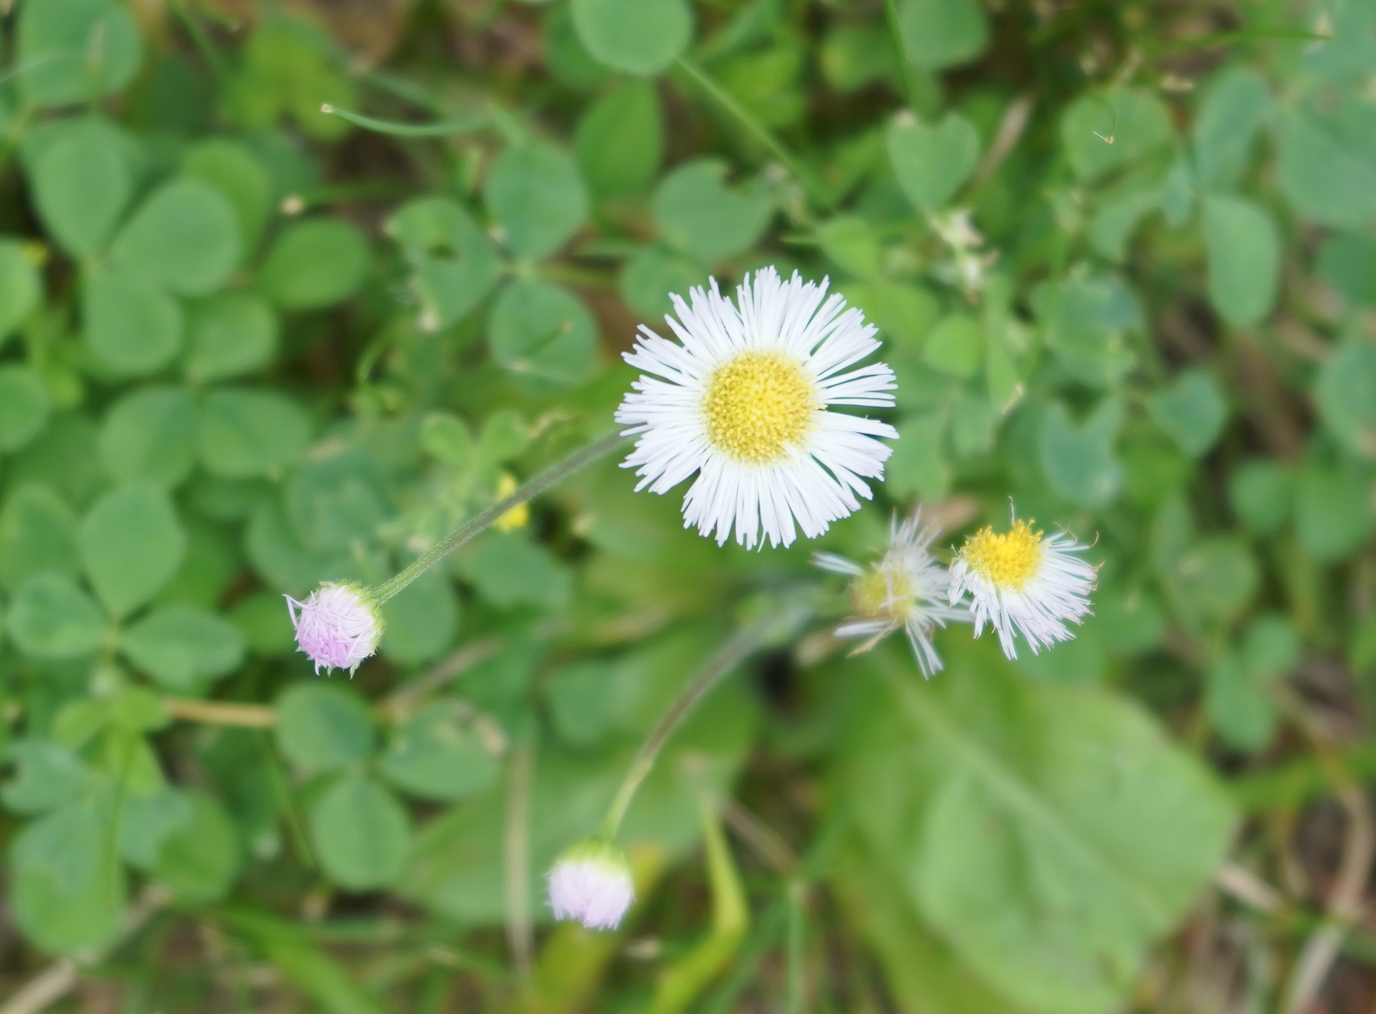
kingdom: Plantae
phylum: Tracheophyta
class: Magnoliopsida
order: Asterales
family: Asteraceae
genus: Erigeron
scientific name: Erigeron philadelphicus
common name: Robin's-plantain
